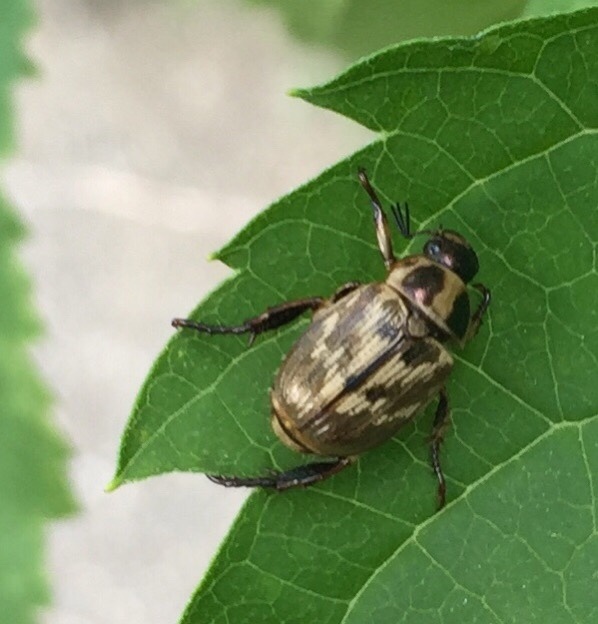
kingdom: Animalia
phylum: Arthropoda
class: Insecta
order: Coleoptera
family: Scarabaeidae
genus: Exomala
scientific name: Exomala orientalis
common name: Oriental beetle
